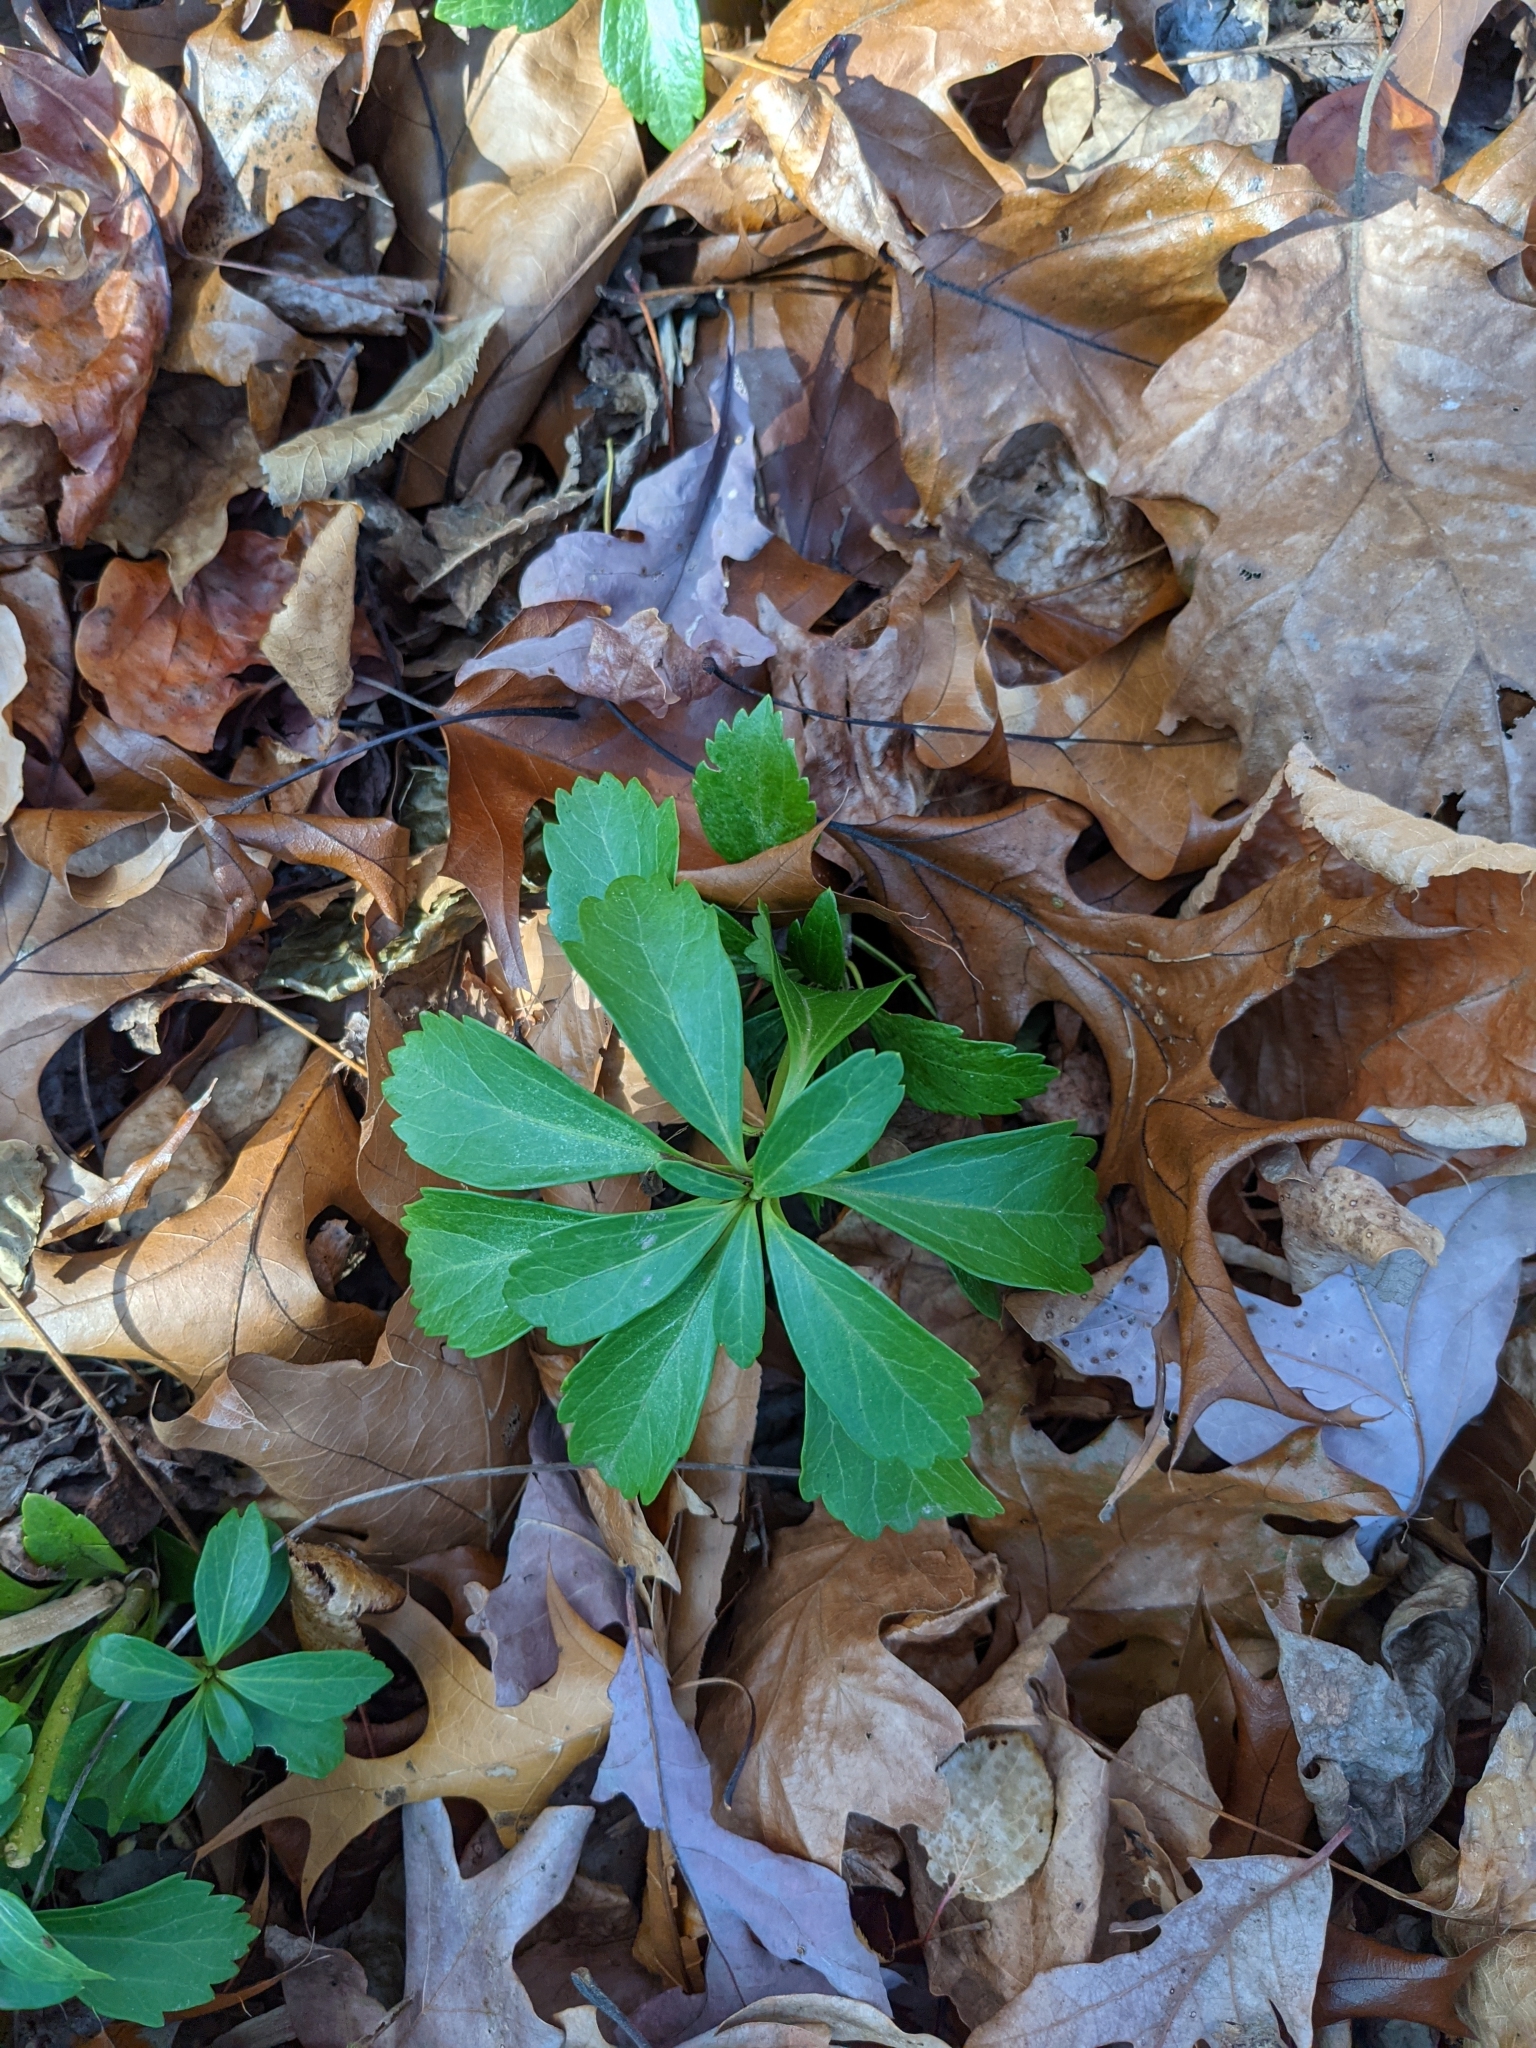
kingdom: Plantae
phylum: Tracheophyta
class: Magnoliopsida
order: Buxales
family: Buxaceae
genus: Pachysandra
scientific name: Pachysandra terminalis
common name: Japanese pachysandra
